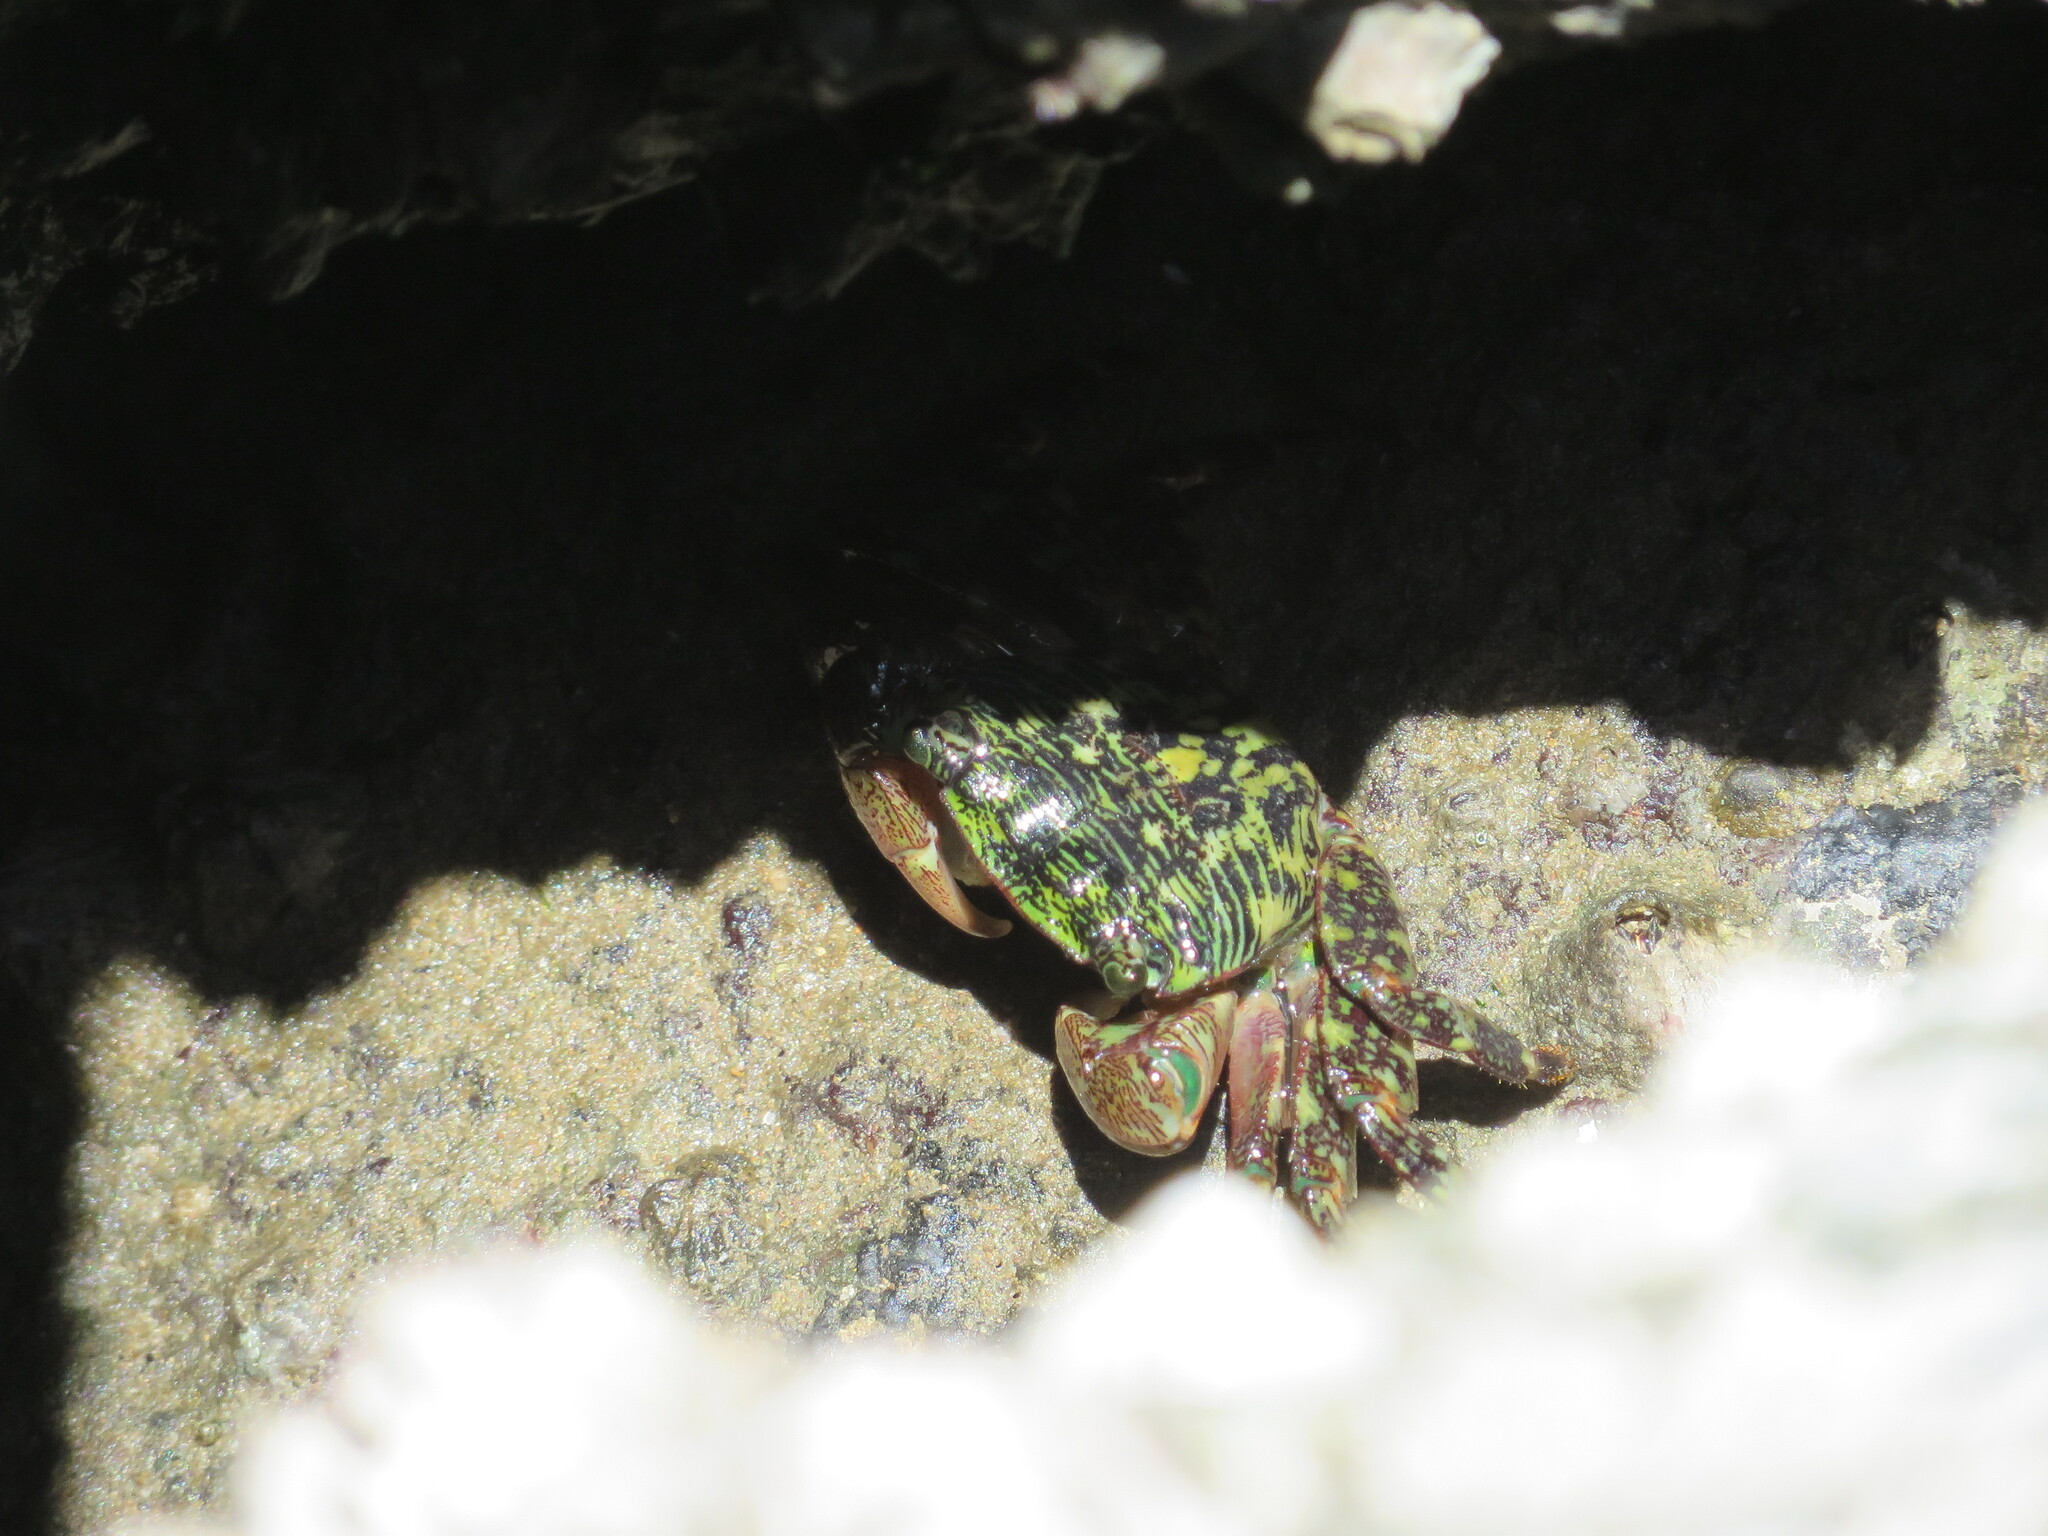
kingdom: Animalia
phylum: Arthropoda
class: Malacostraca
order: Decapoda
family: Grapsidae
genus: Pachygrapsus
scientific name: Pachygrapsus crassipes
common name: Striped shore crab
